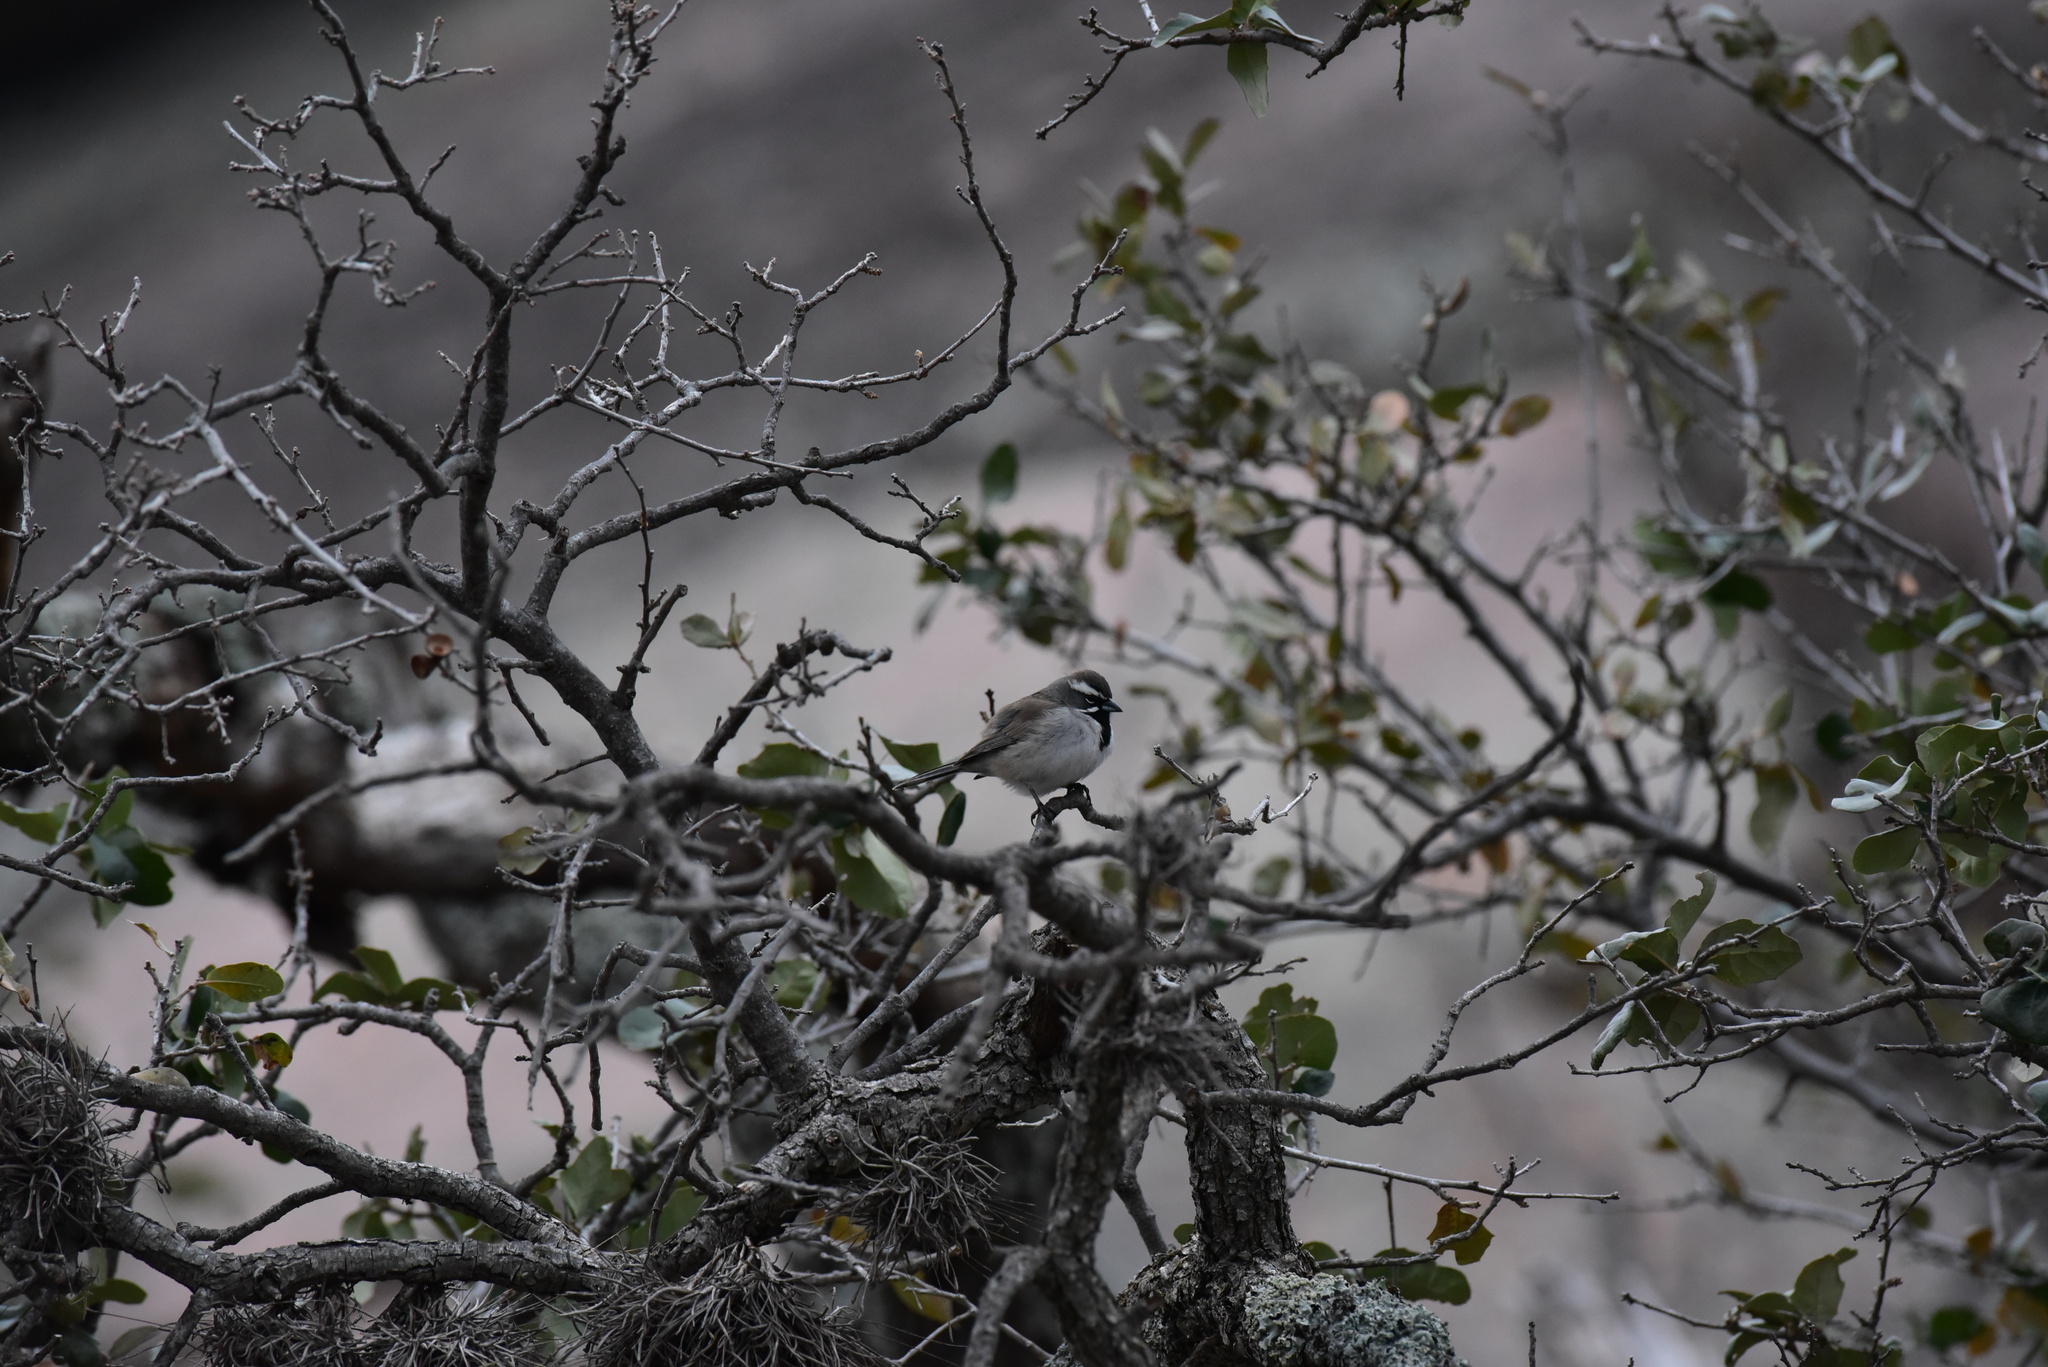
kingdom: Animalia
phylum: Chordata
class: Aves
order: Passeriformes
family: Passerellidae
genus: Amphispiza
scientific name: Amphispiza bilineata
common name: Black-throated sparrow
